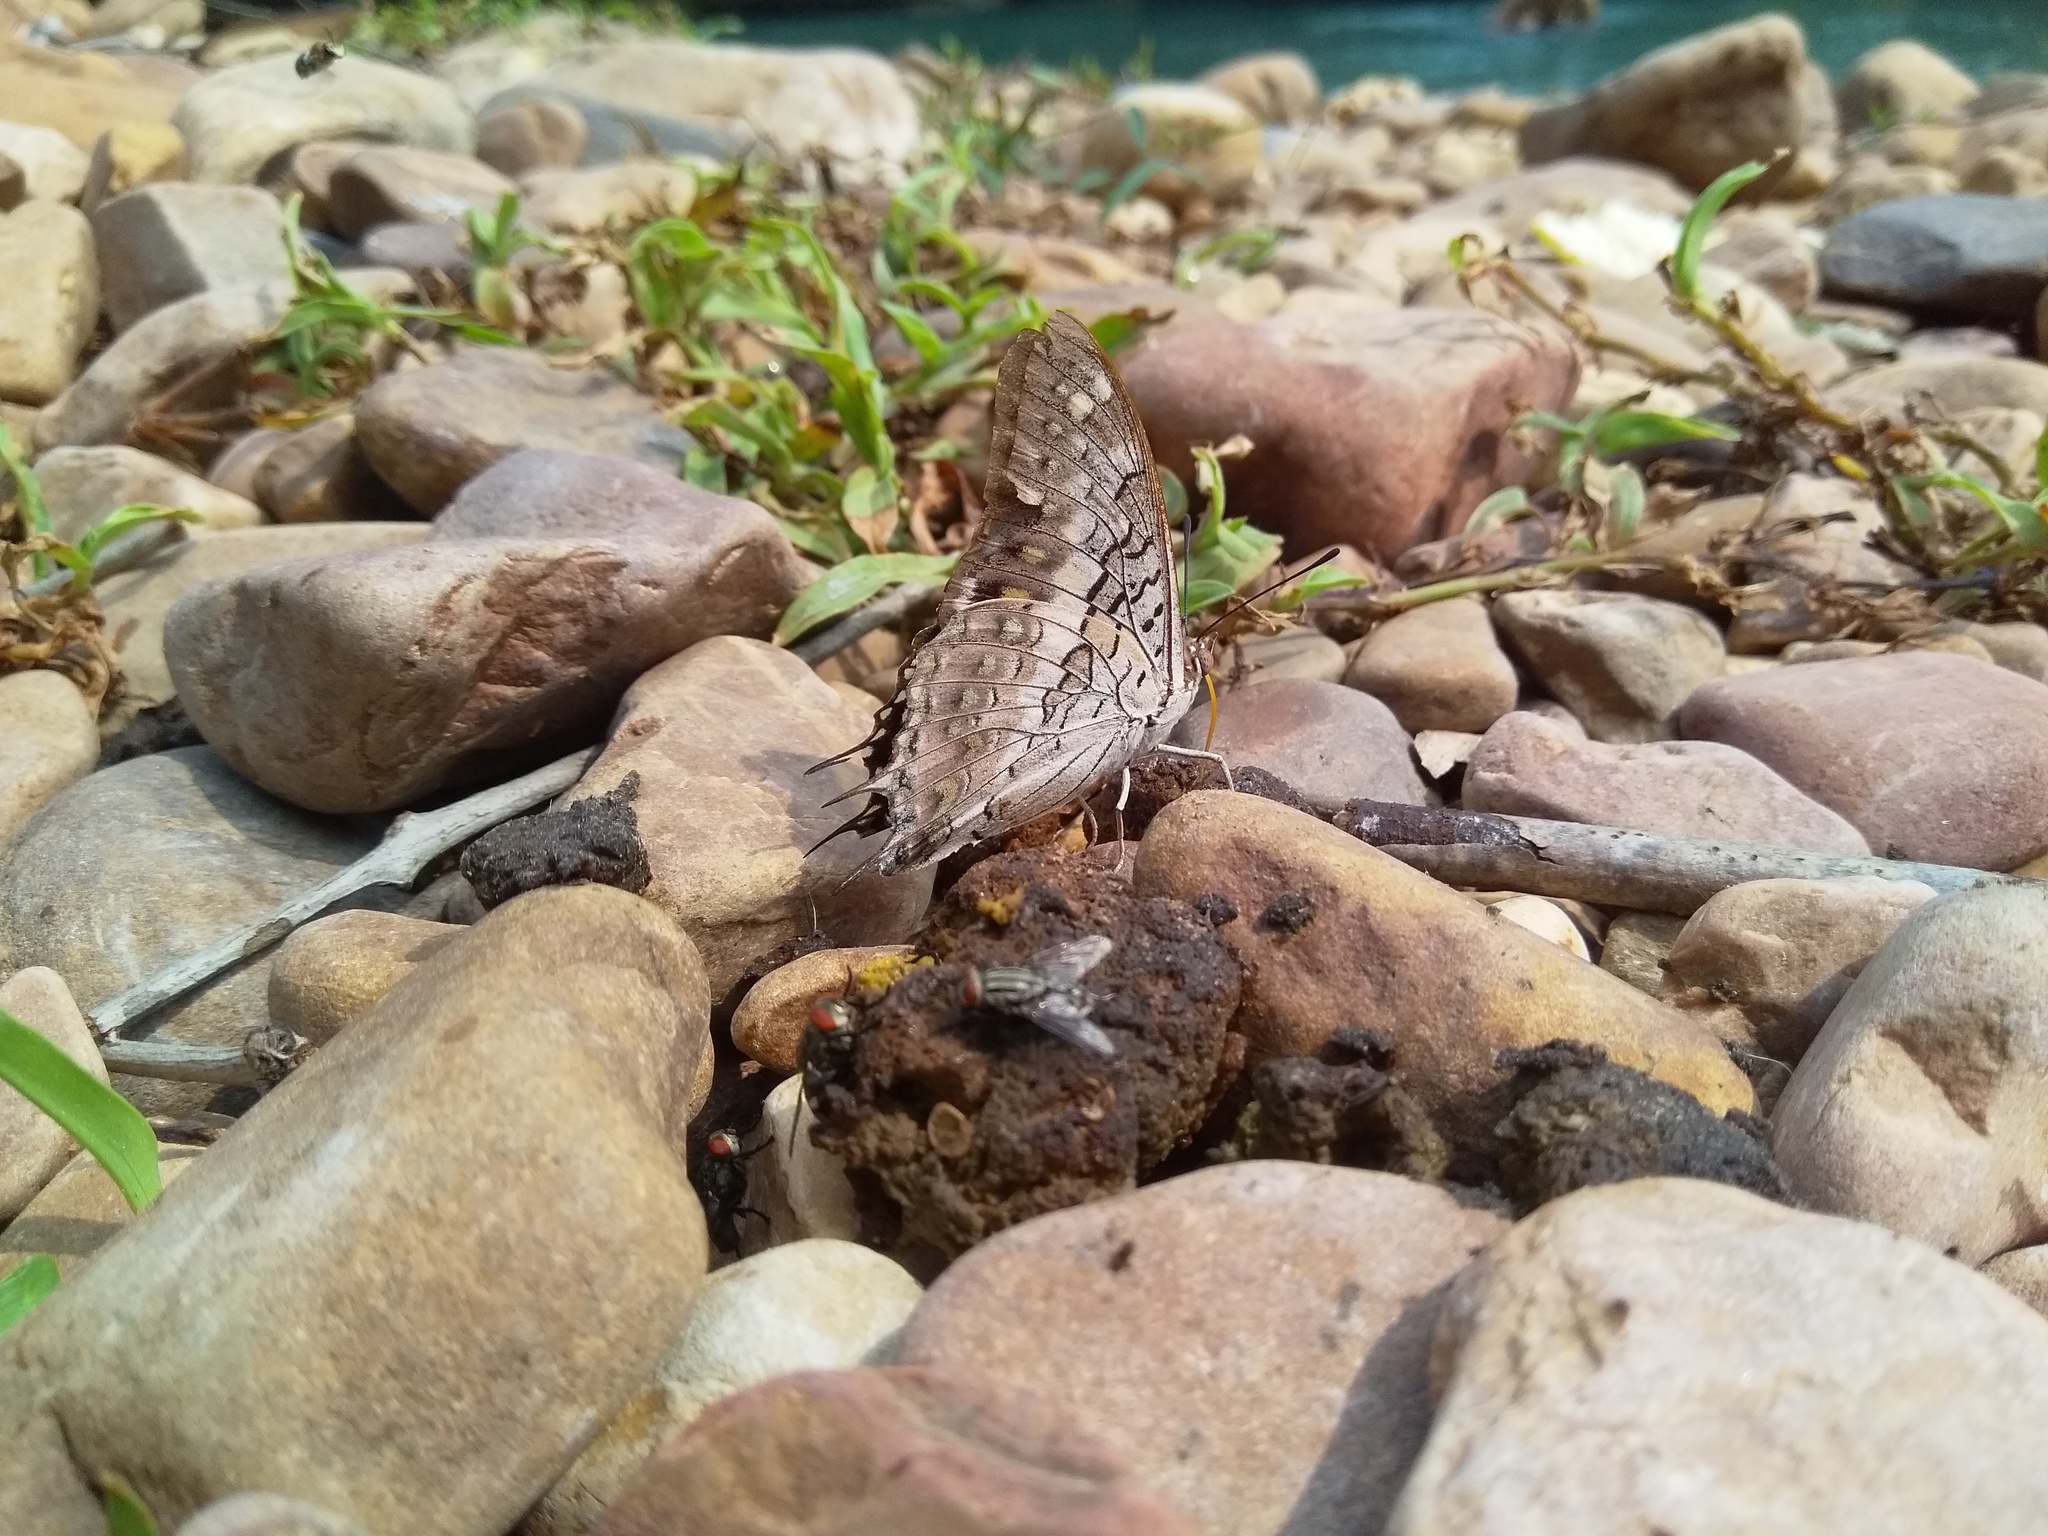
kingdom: Animalia
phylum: Arthropoda
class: Insecta
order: Lepidoptera
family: Nymphalidae
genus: Charaxes
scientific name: Charaxes solon
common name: Black rajah
